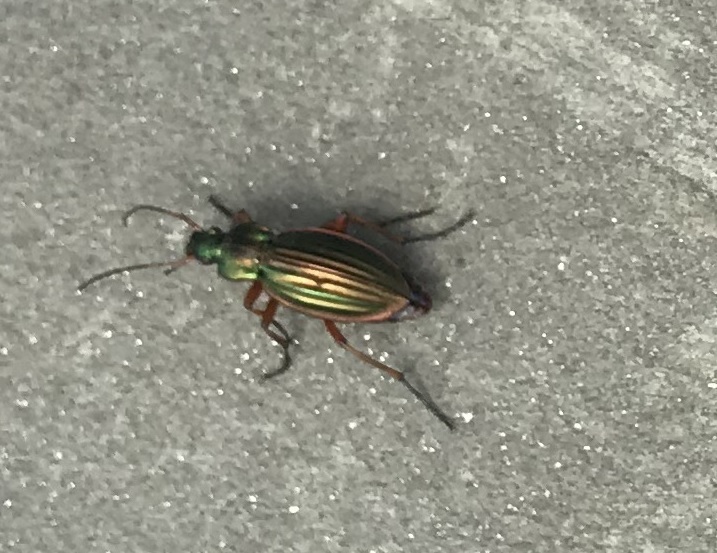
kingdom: Animalia
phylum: Arthropoda
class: Insecta
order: Coleoptera
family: Carabidae
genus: Carabus
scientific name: Carabus auratus
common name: Golden ground beetle
